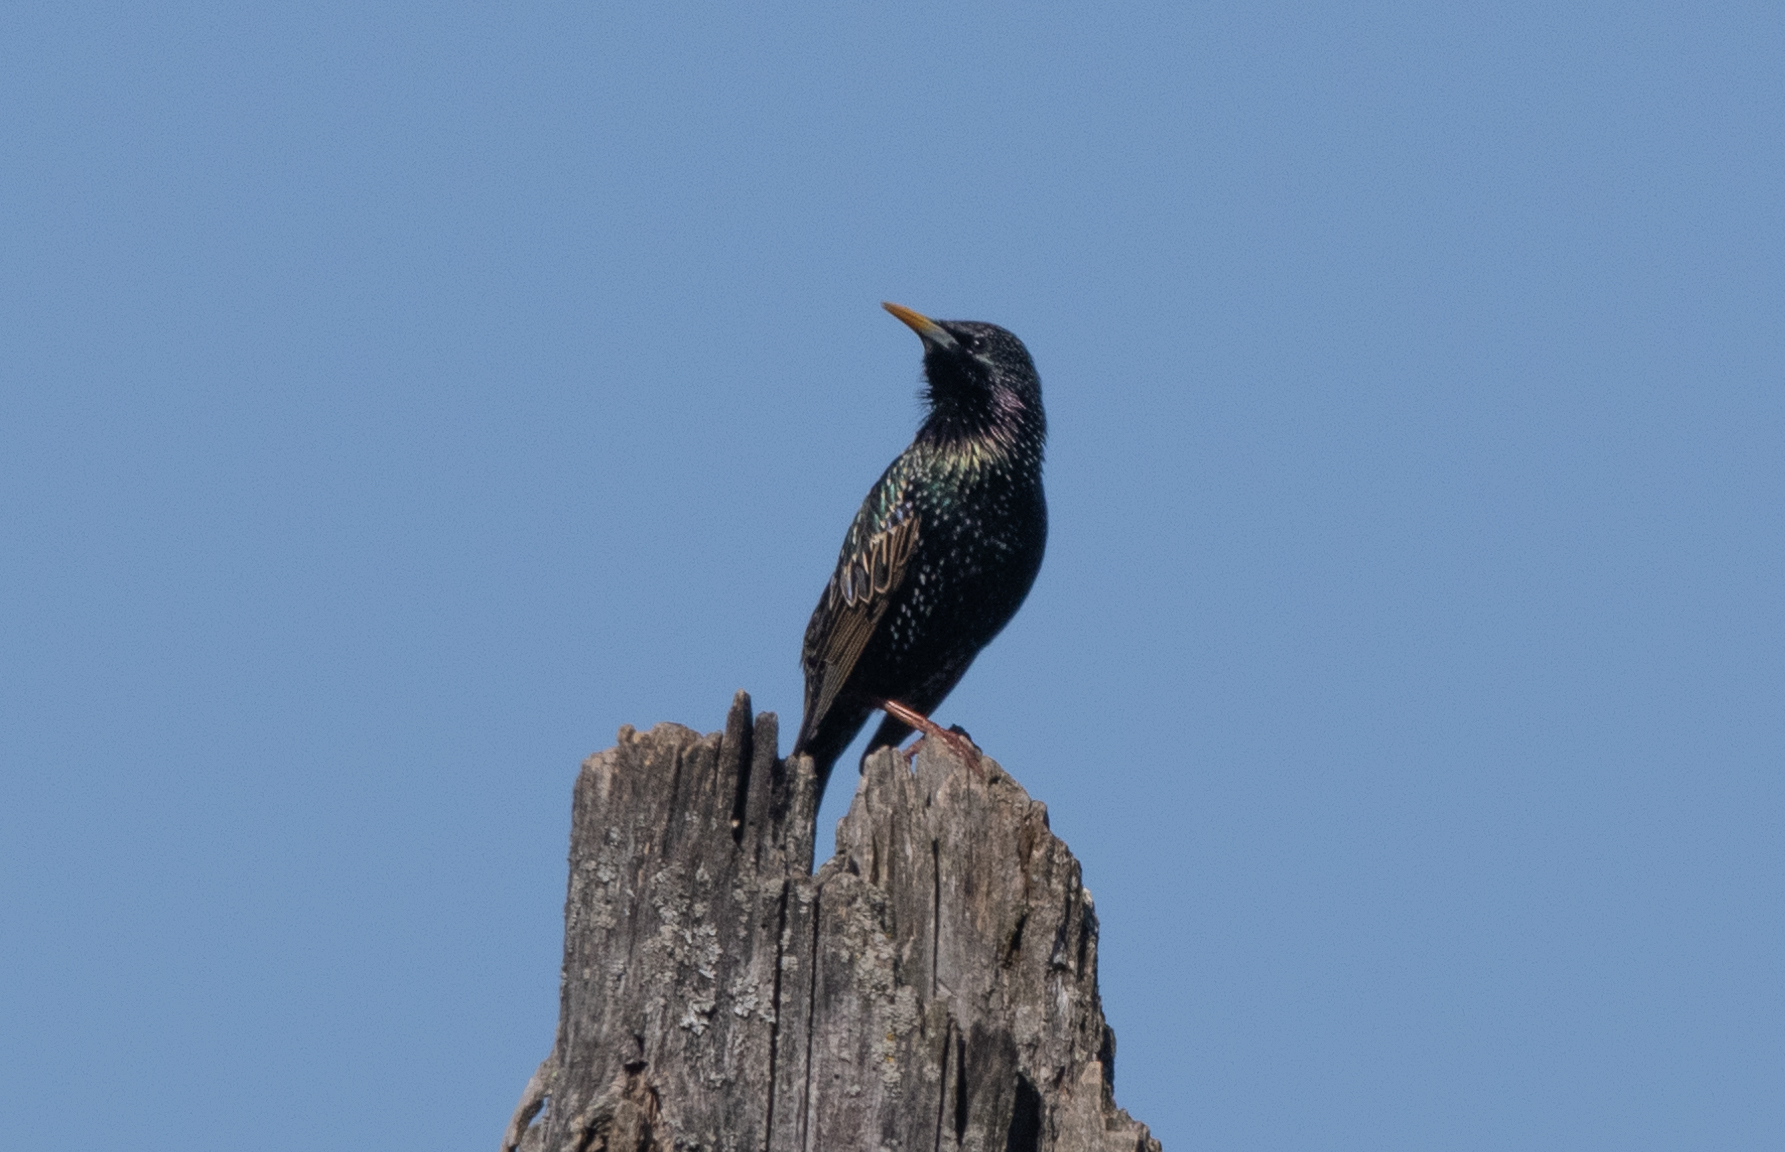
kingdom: Animalia
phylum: Chordata
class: Aves
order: Passeriformes
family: Sturnidae
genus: Sturnus
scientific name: Sturnus vulgaris
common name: Common starling
